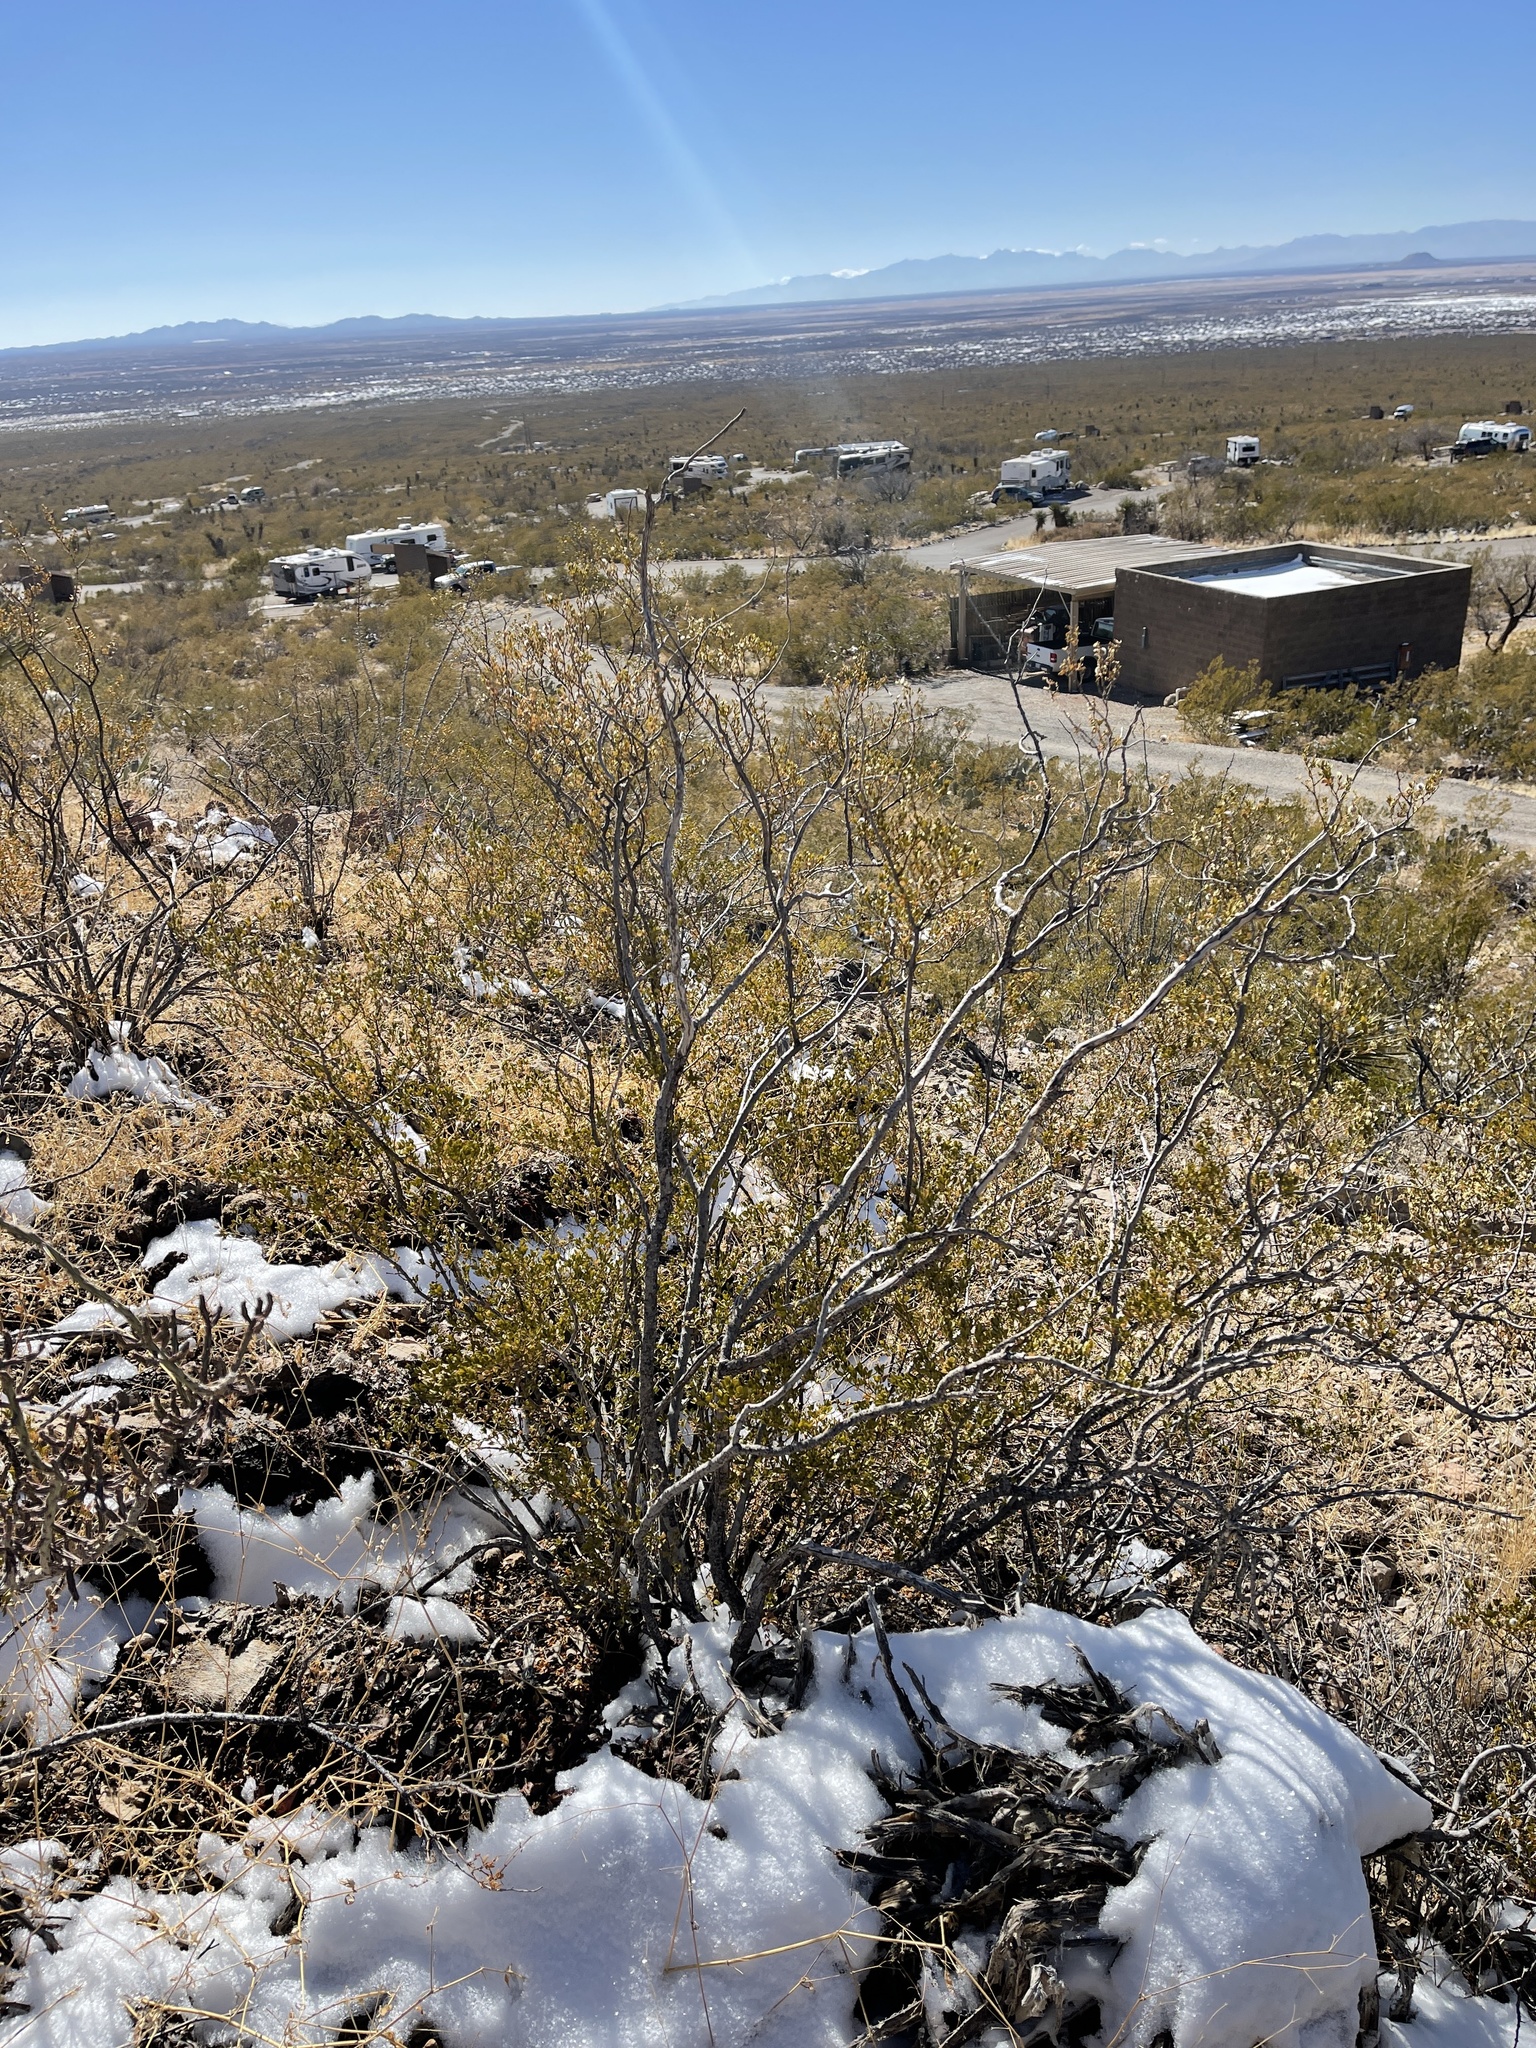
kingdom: Plantae
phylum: Tracheophyta
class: Magnoliopsida
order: Zygophyllales
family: Zygophyllaceae
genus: Larrea
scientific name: Larrea tridentata
